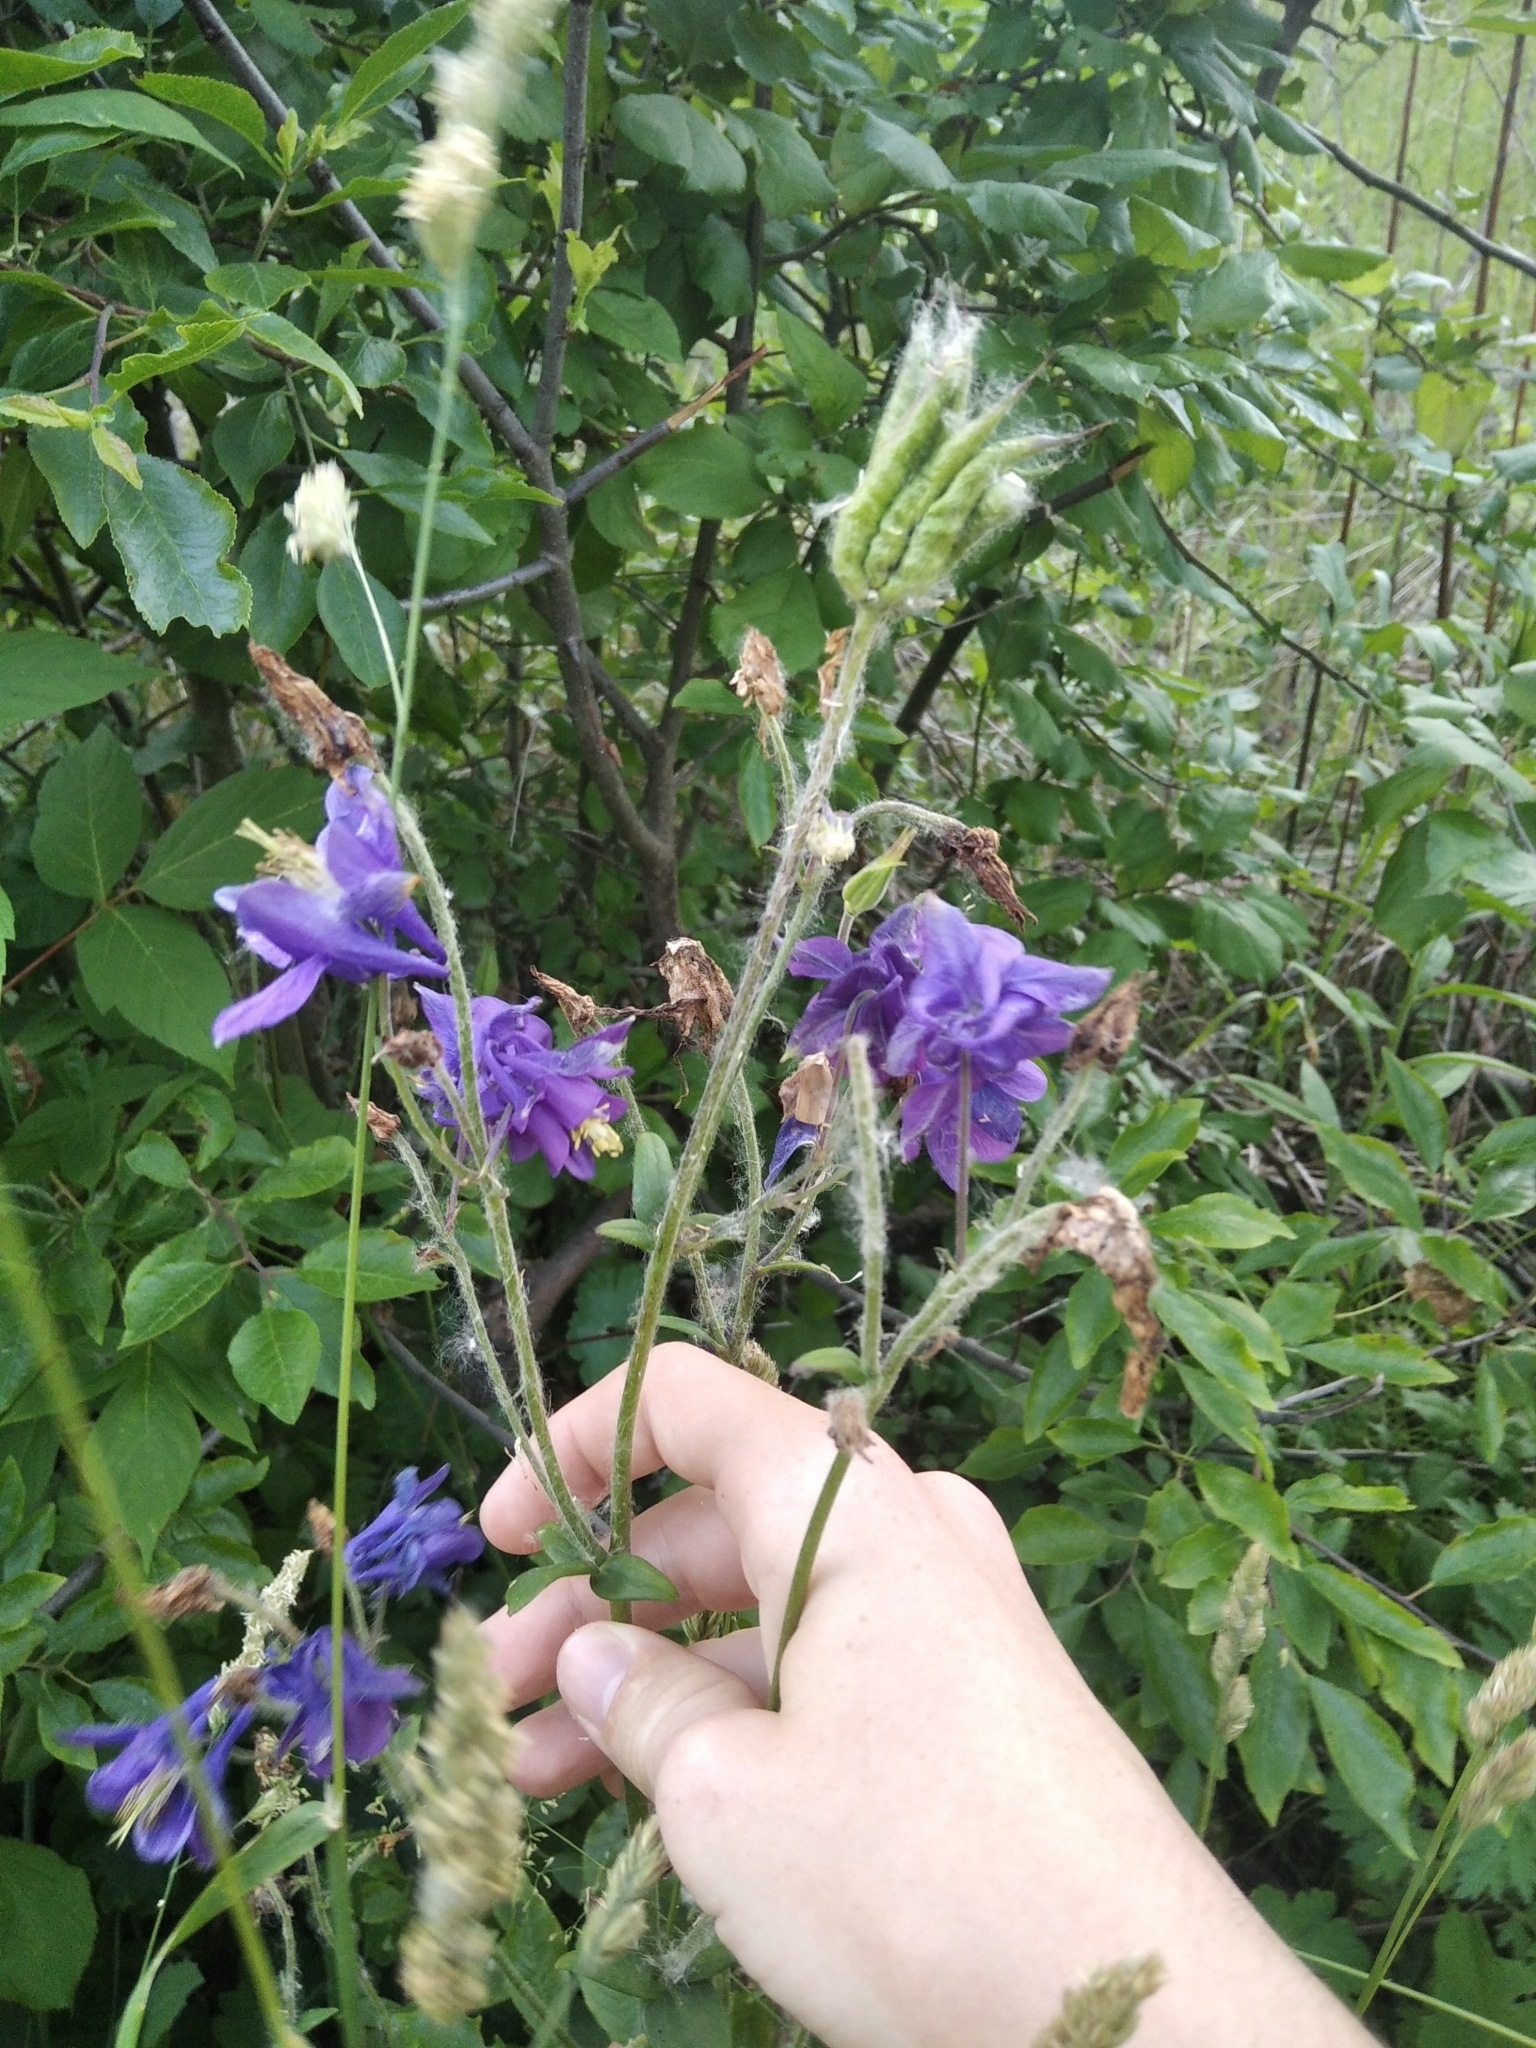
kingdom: Plantae
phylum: Tracheophyta
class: Magnoliopsida
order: Ranunculales
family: Ranunculaceae
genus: Aquilegia
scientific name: Aquilegia vulgaris
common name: Columbine
